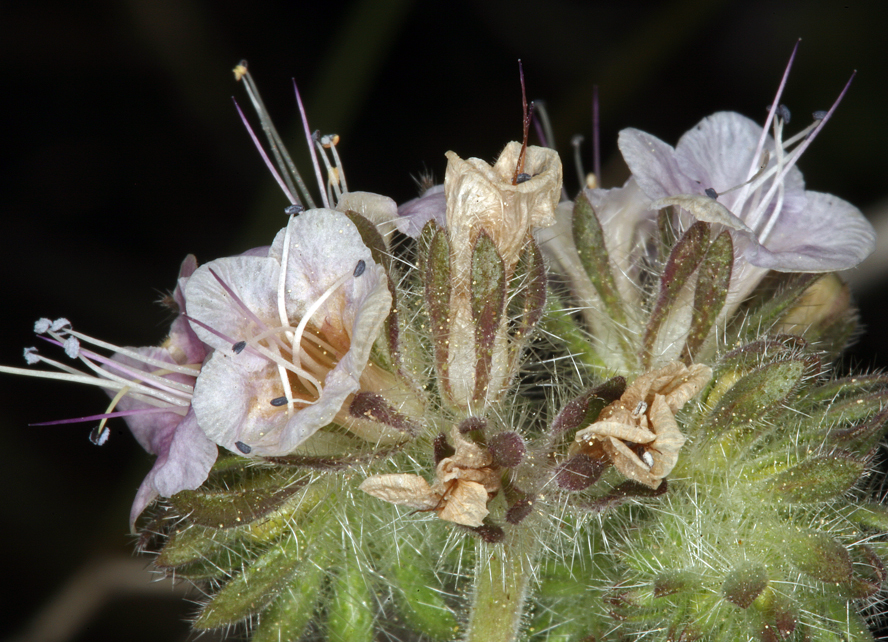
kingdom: Plantae
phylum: Tracheophyta
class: Magnoliopsida
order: Boraginales
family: Hydrophyllaceae
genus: Phacelia
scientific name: Phacelia ramosissima
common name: Branching phacelia
